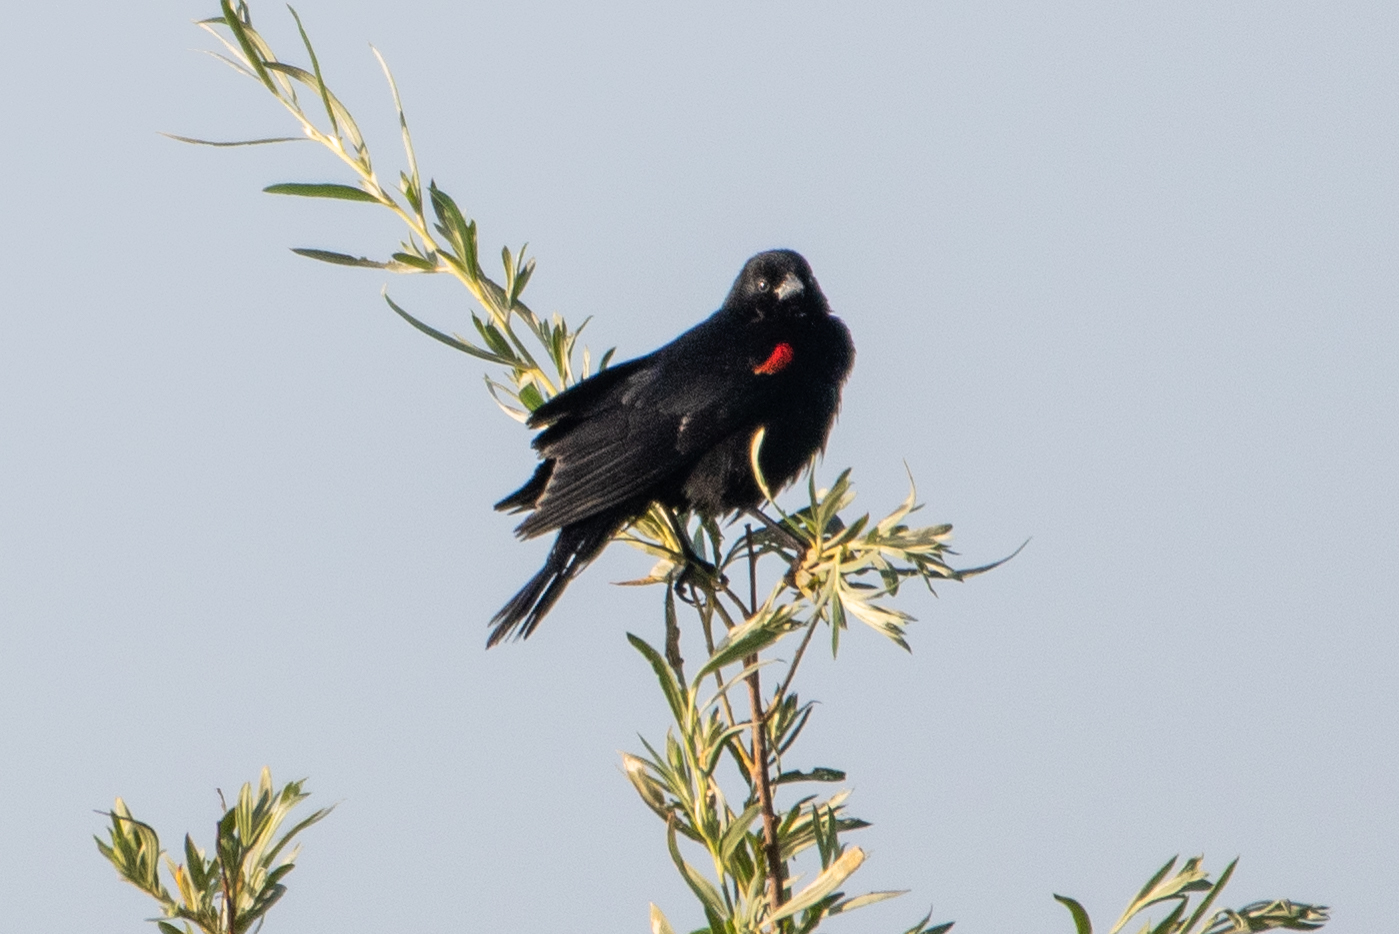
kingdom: Animalia
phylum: Chordata
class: Aves
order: Passeriformes
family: Icteridae
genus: Agelaius
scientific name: Agelaius phoeniceus
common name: Red-winged blackbird
